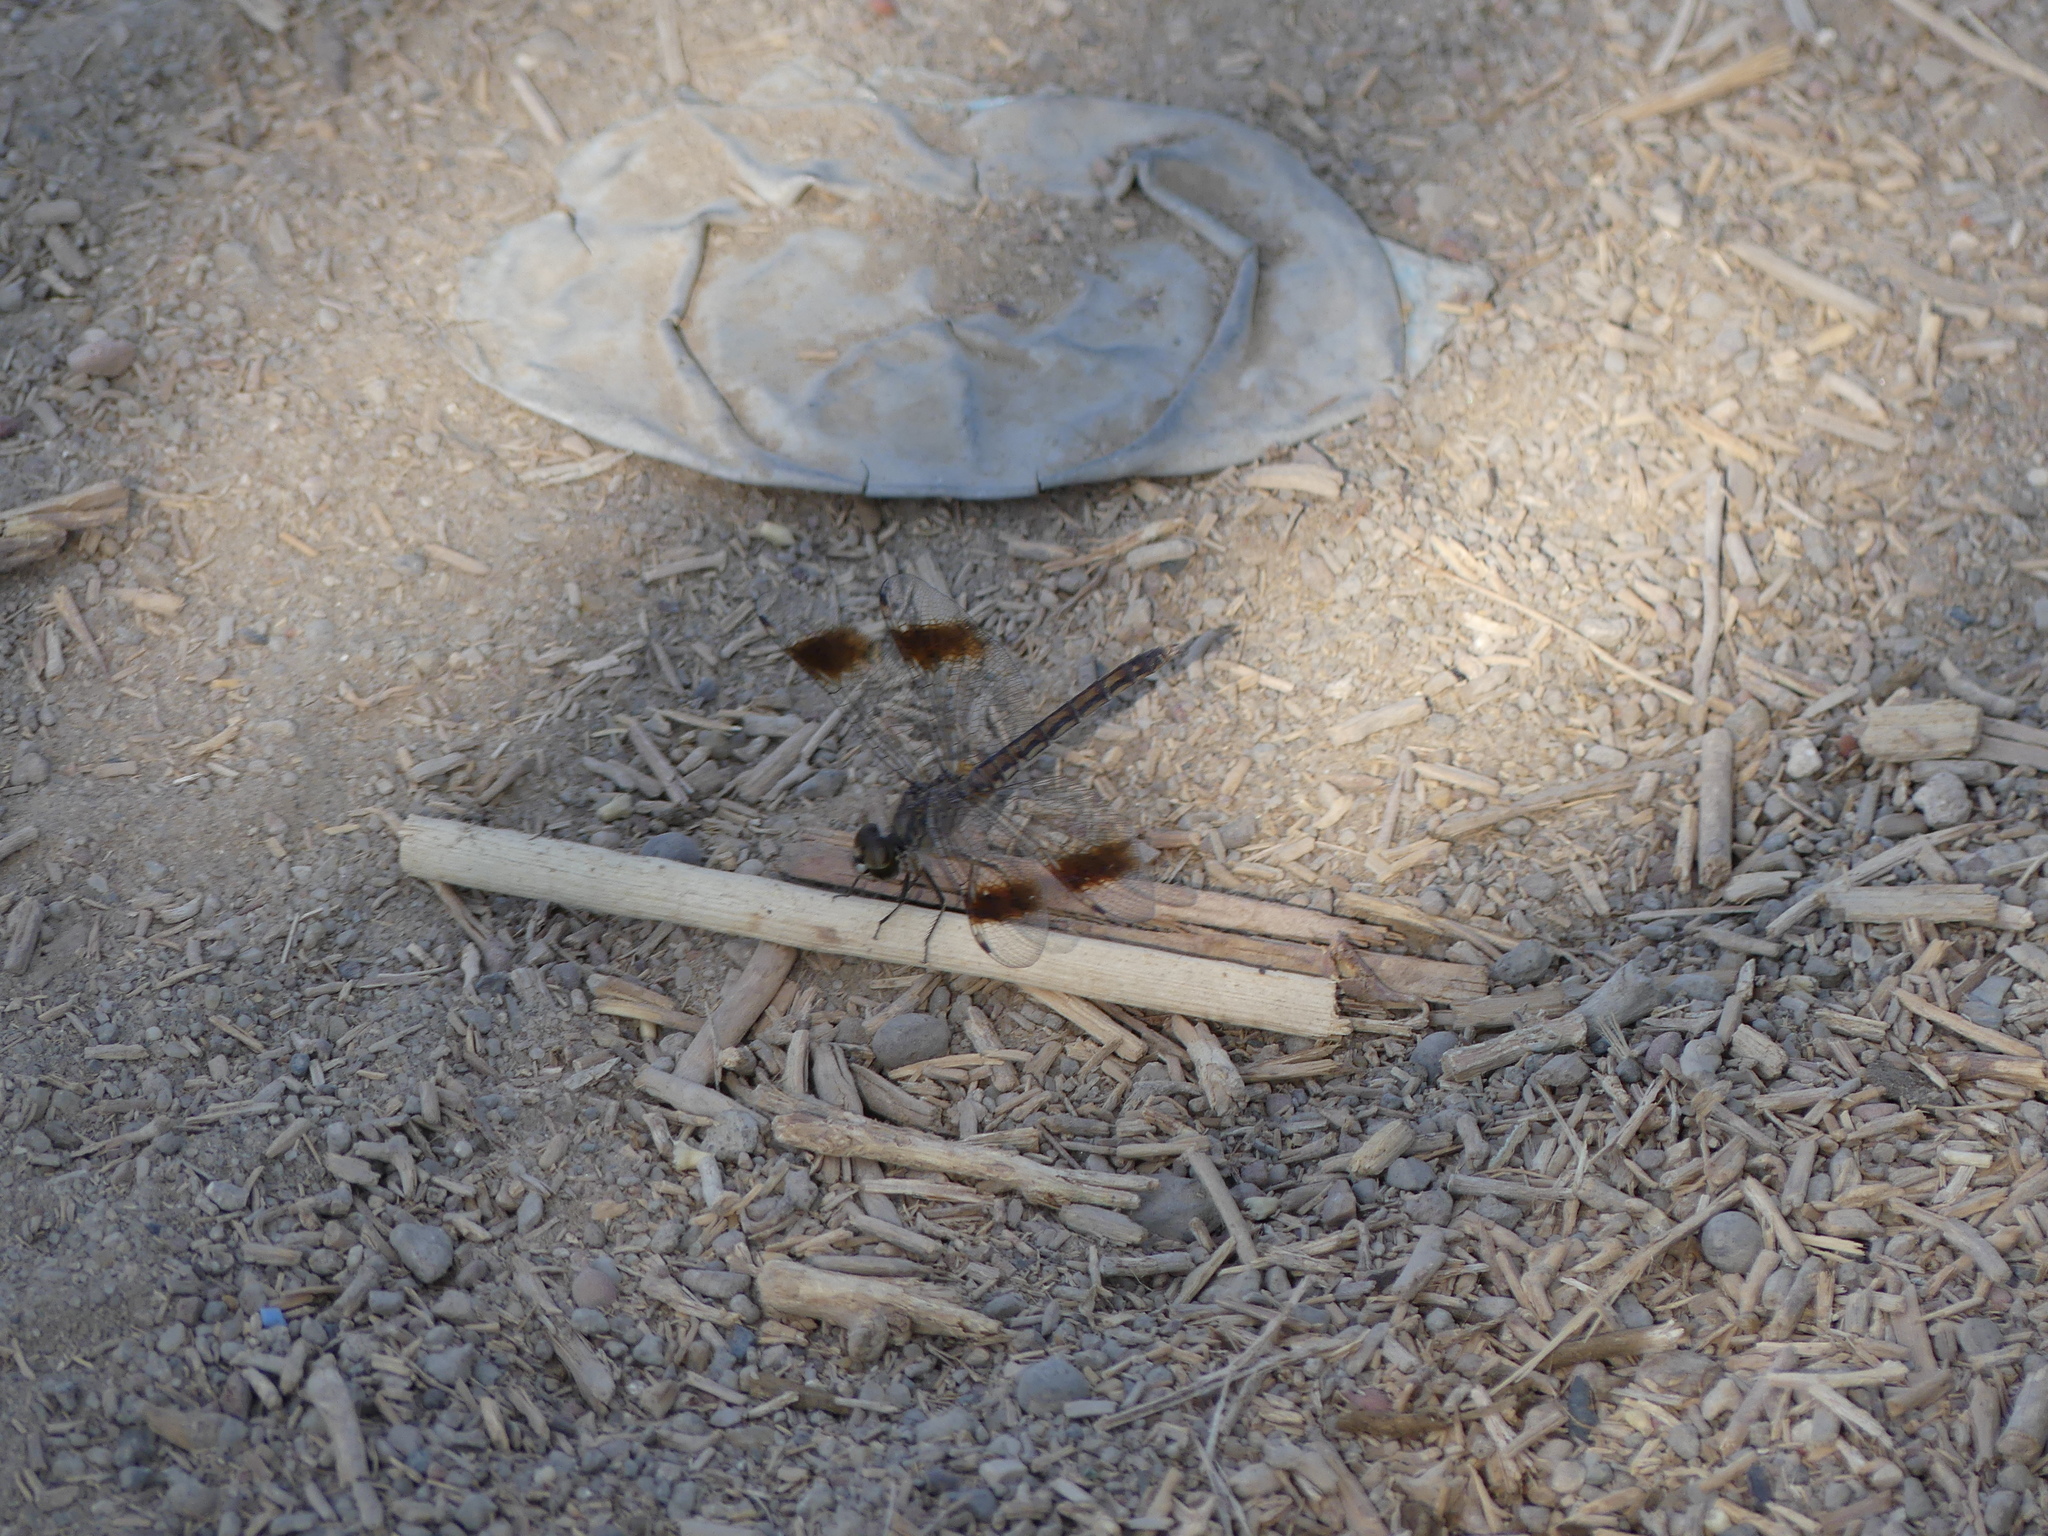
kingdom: Animalia
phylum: Arthropoda
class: Insecta
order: Odonata
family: Libellulidae
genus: Brachythemis
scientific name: Brachythemis impartita
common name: Banded groundling
